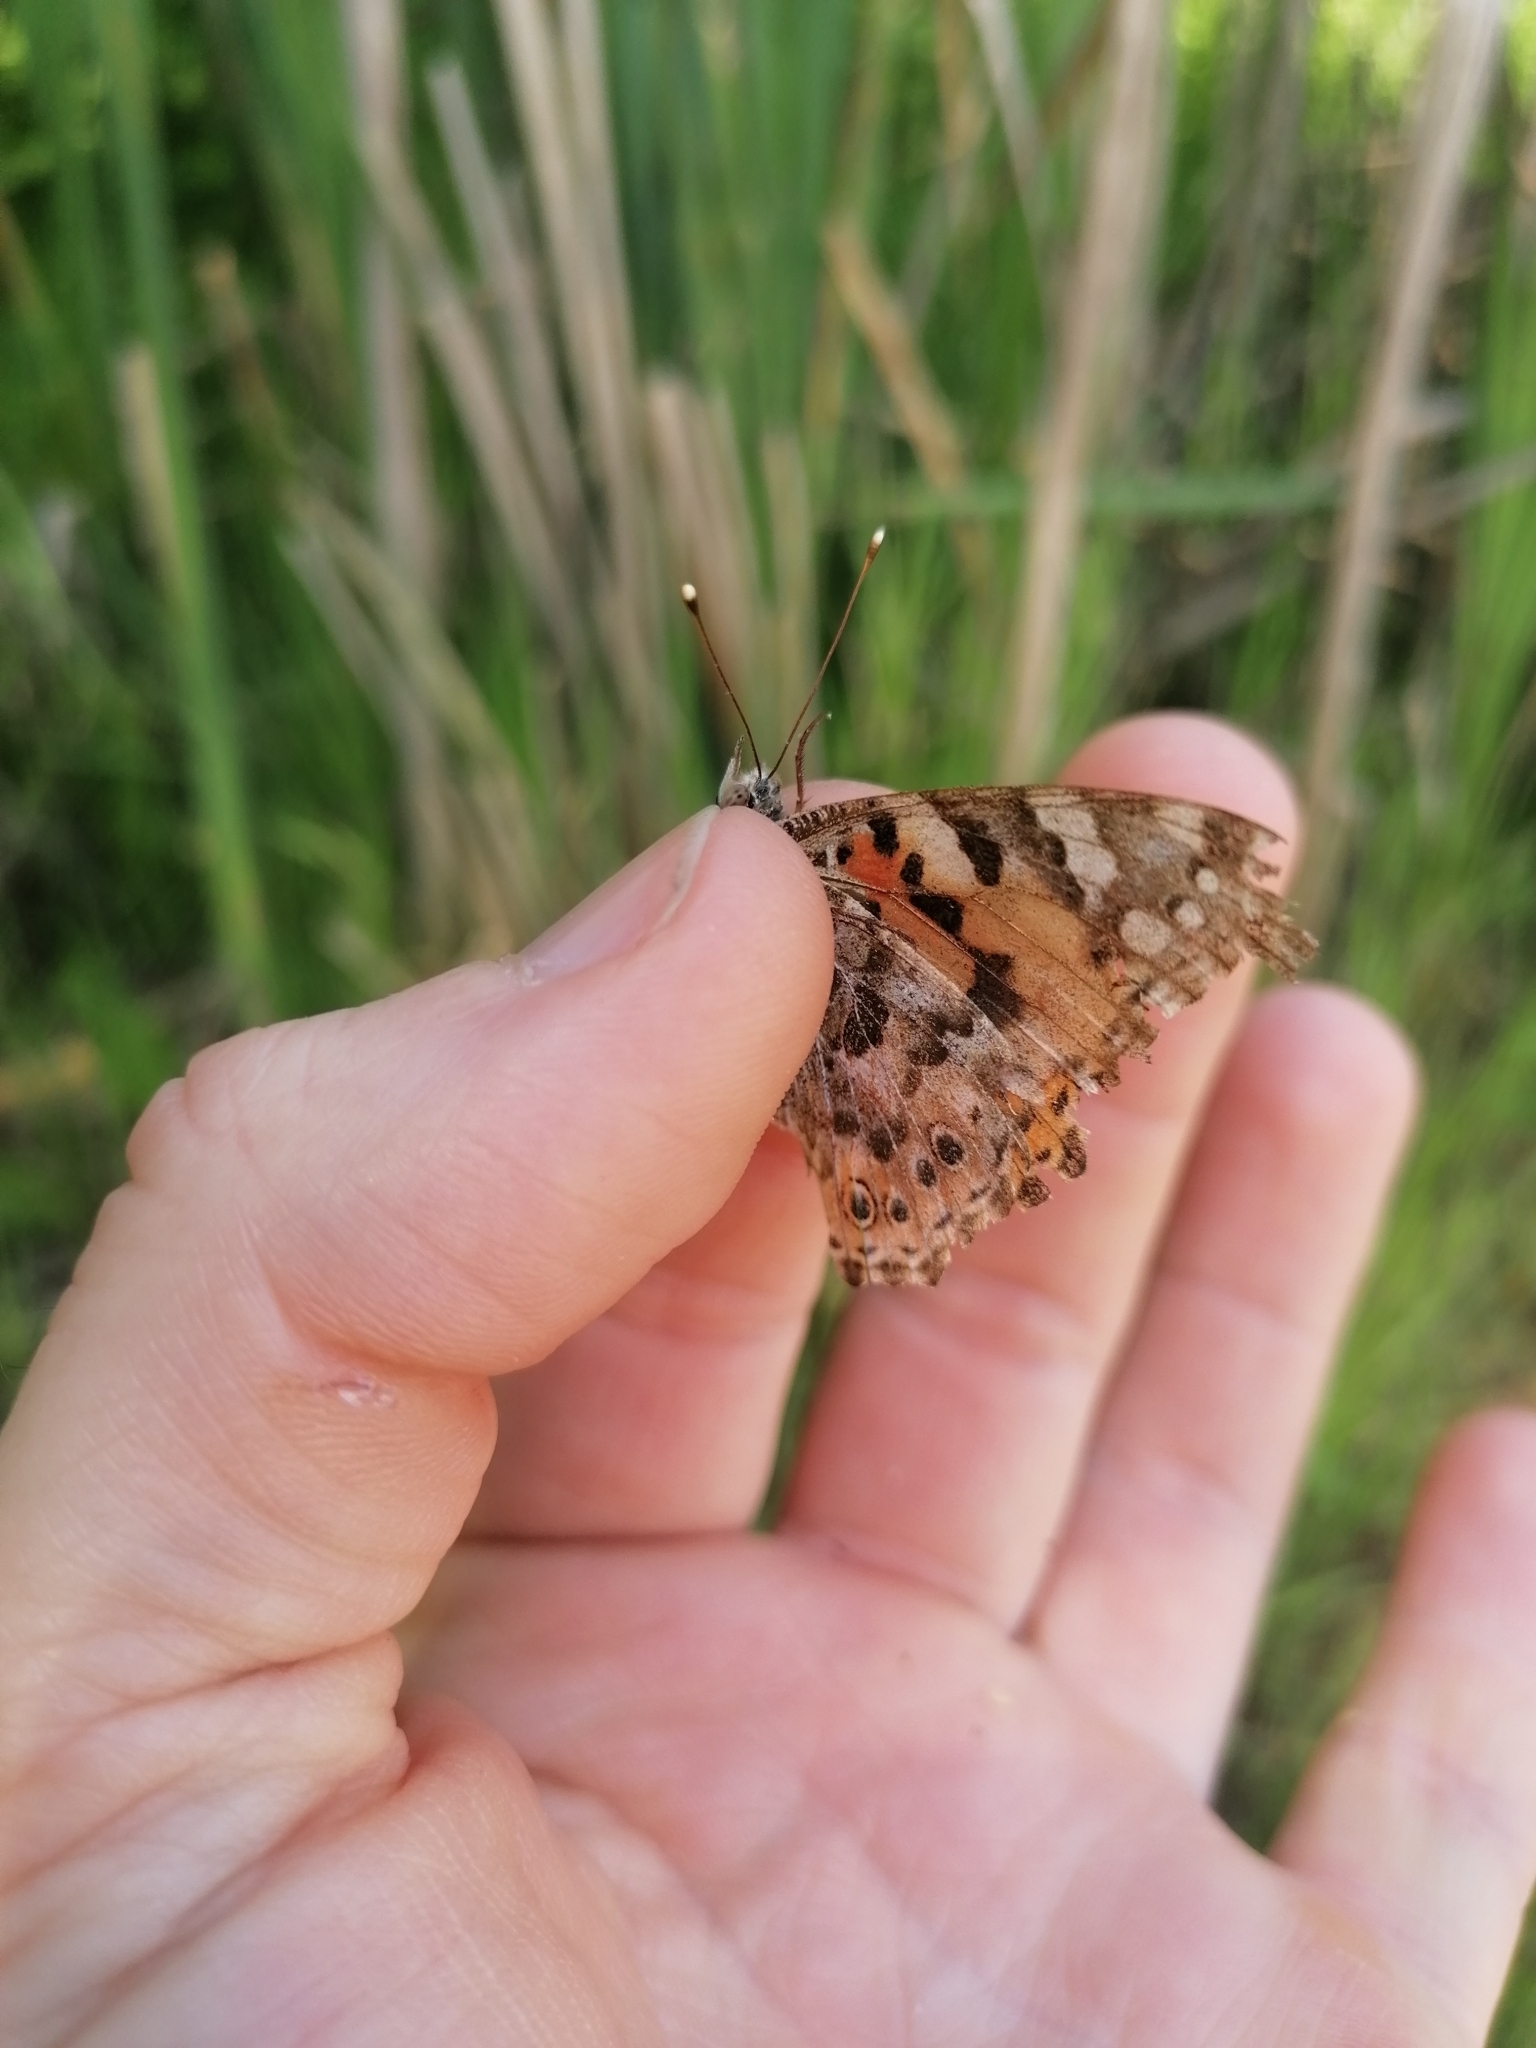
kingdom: Animalia
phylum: Arthropoda
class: Insecta
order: Lepidoptera
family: Nymphalidae
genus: Vanessa
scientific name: Vanessa cardui
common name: Painted lady
